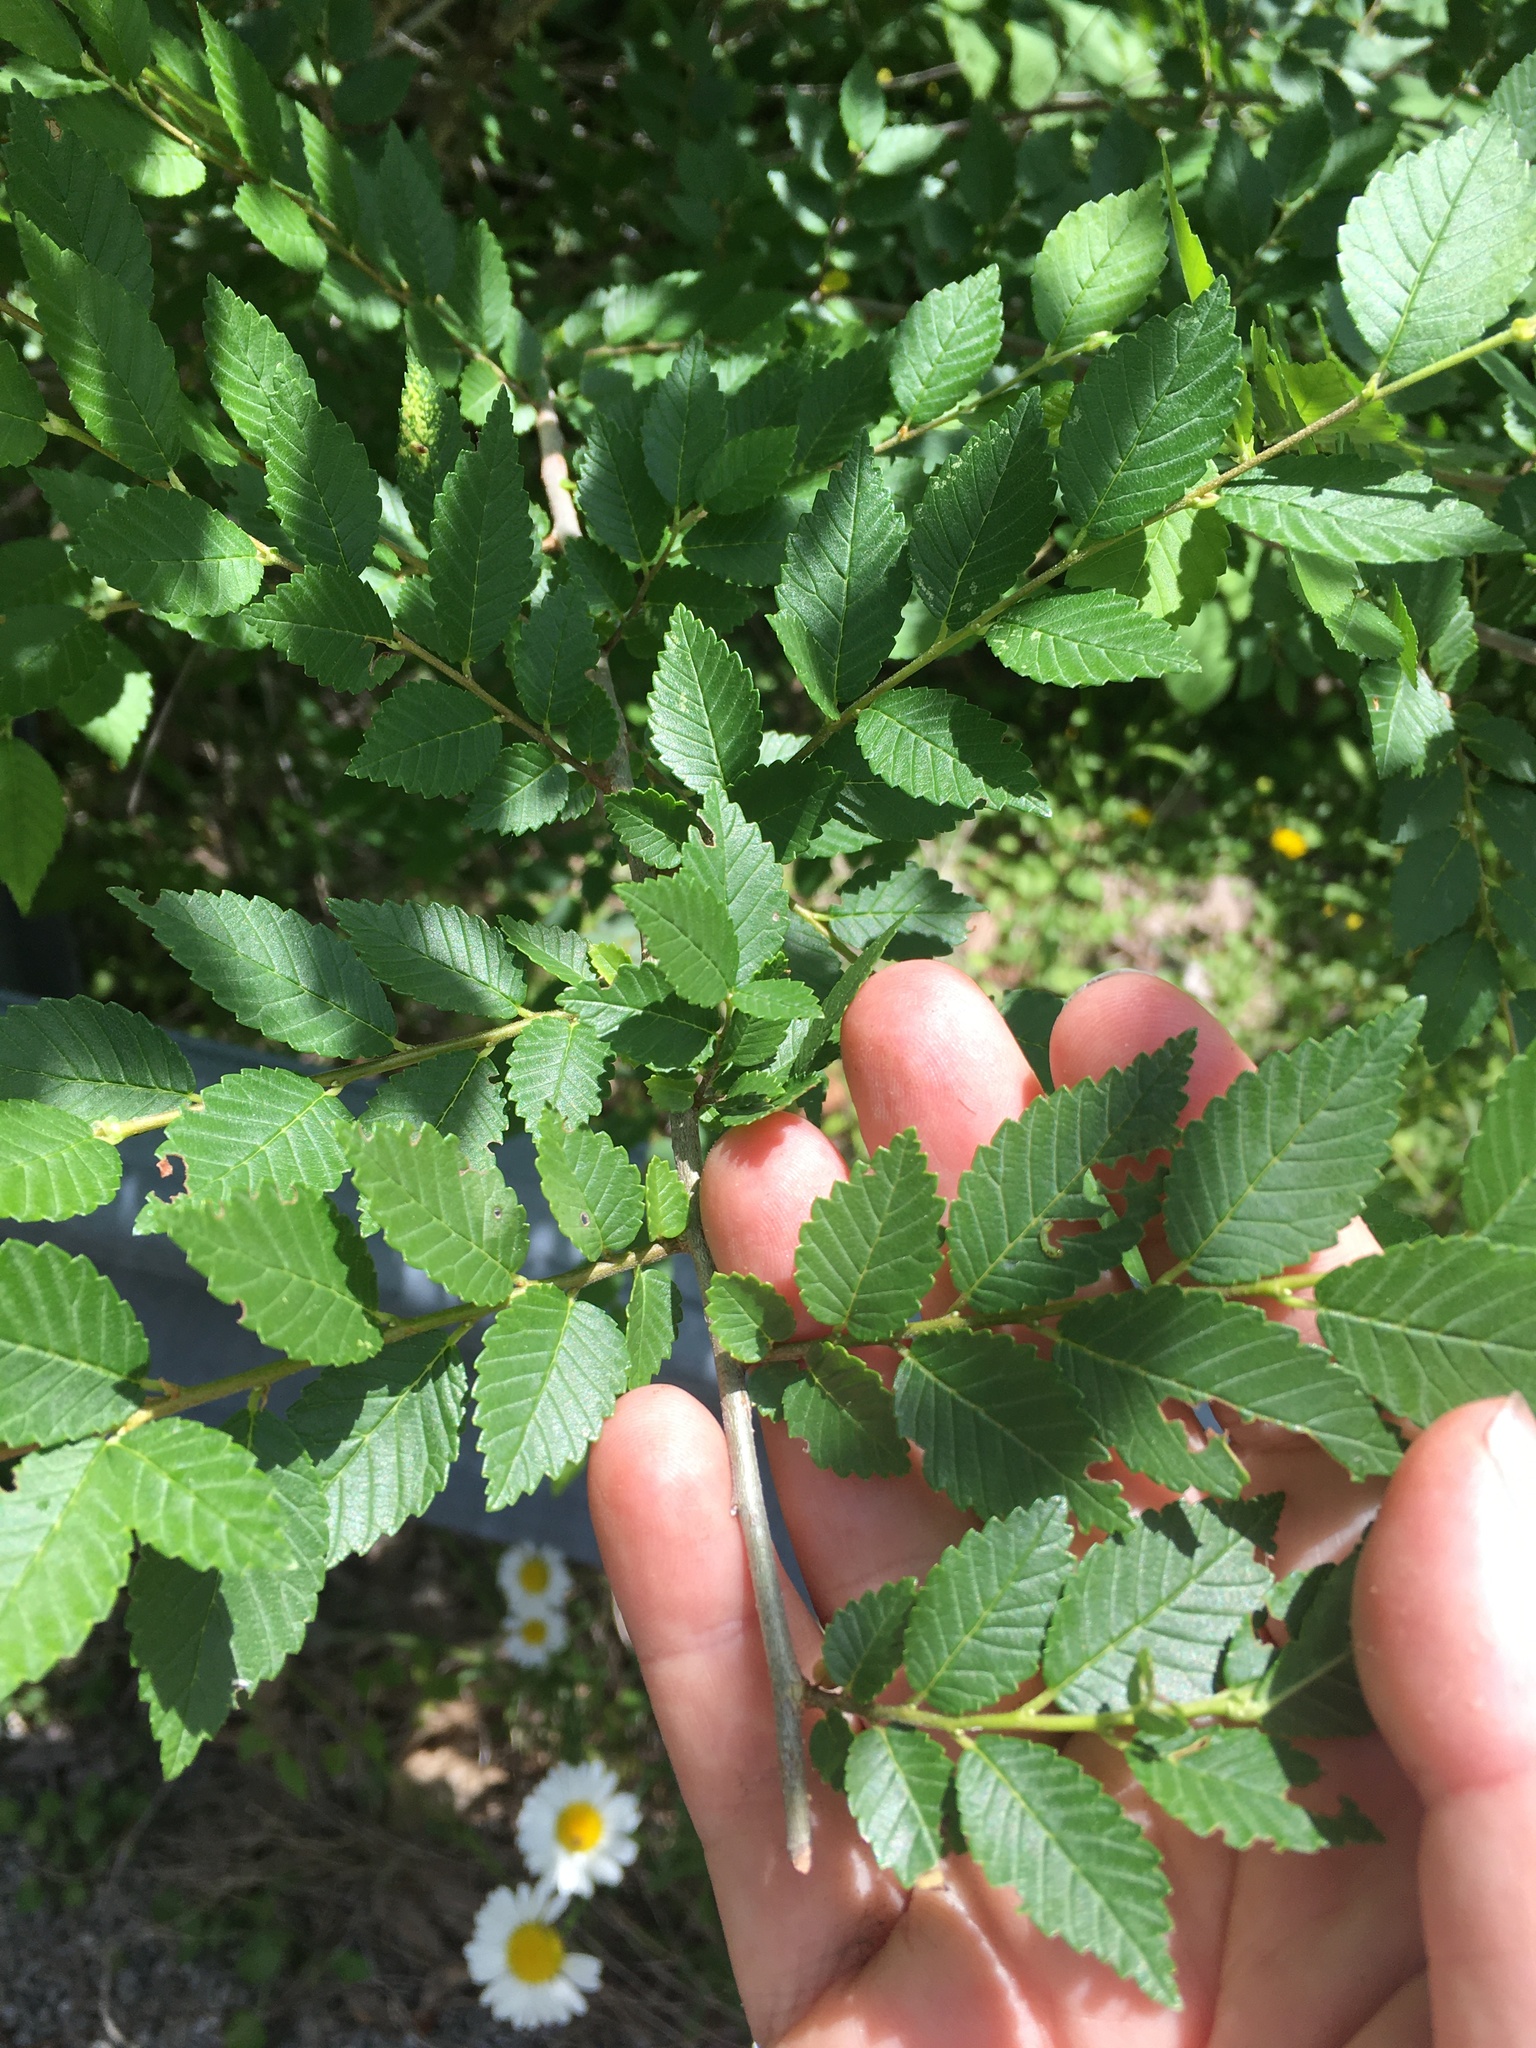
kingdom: Plantae
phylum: Tracheophyta
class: Magnoliopsida
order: Rosales
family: Ulmaceae
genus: Ulmus
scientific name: Ulmus pumila
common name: Siberian elm
